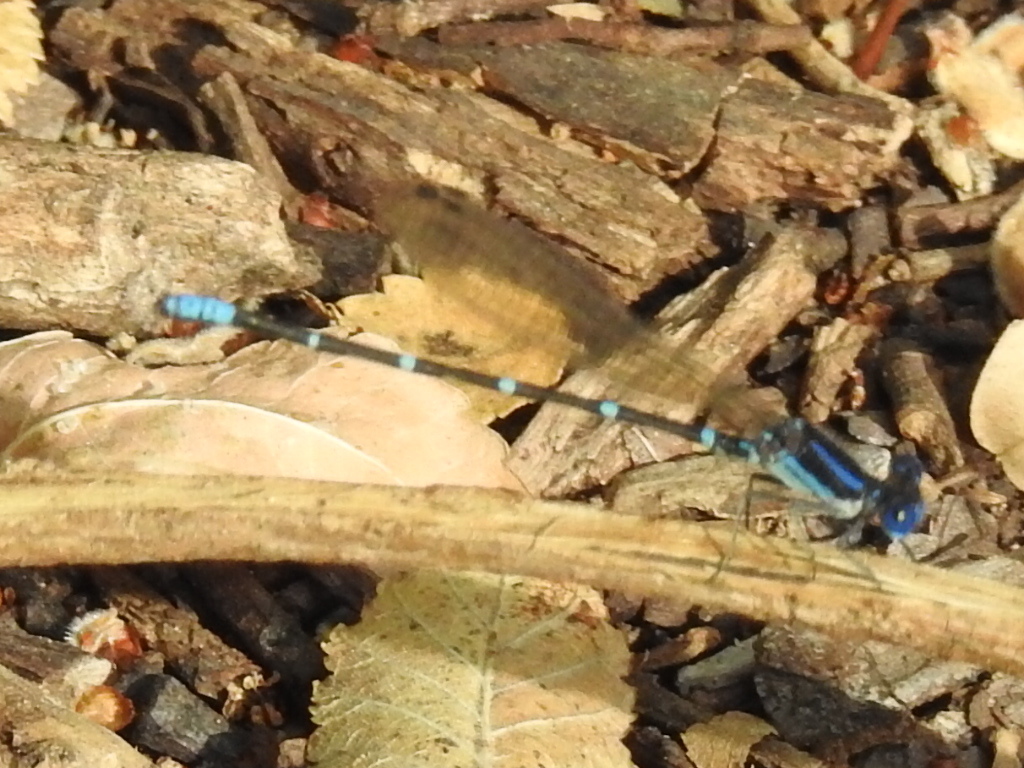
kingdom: Animalia
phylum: Arthropoda
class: Insecta
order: Odonata
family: Coenagrionidae
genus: Argia
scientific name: Argia sedula
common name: Blue-ringed dancer
